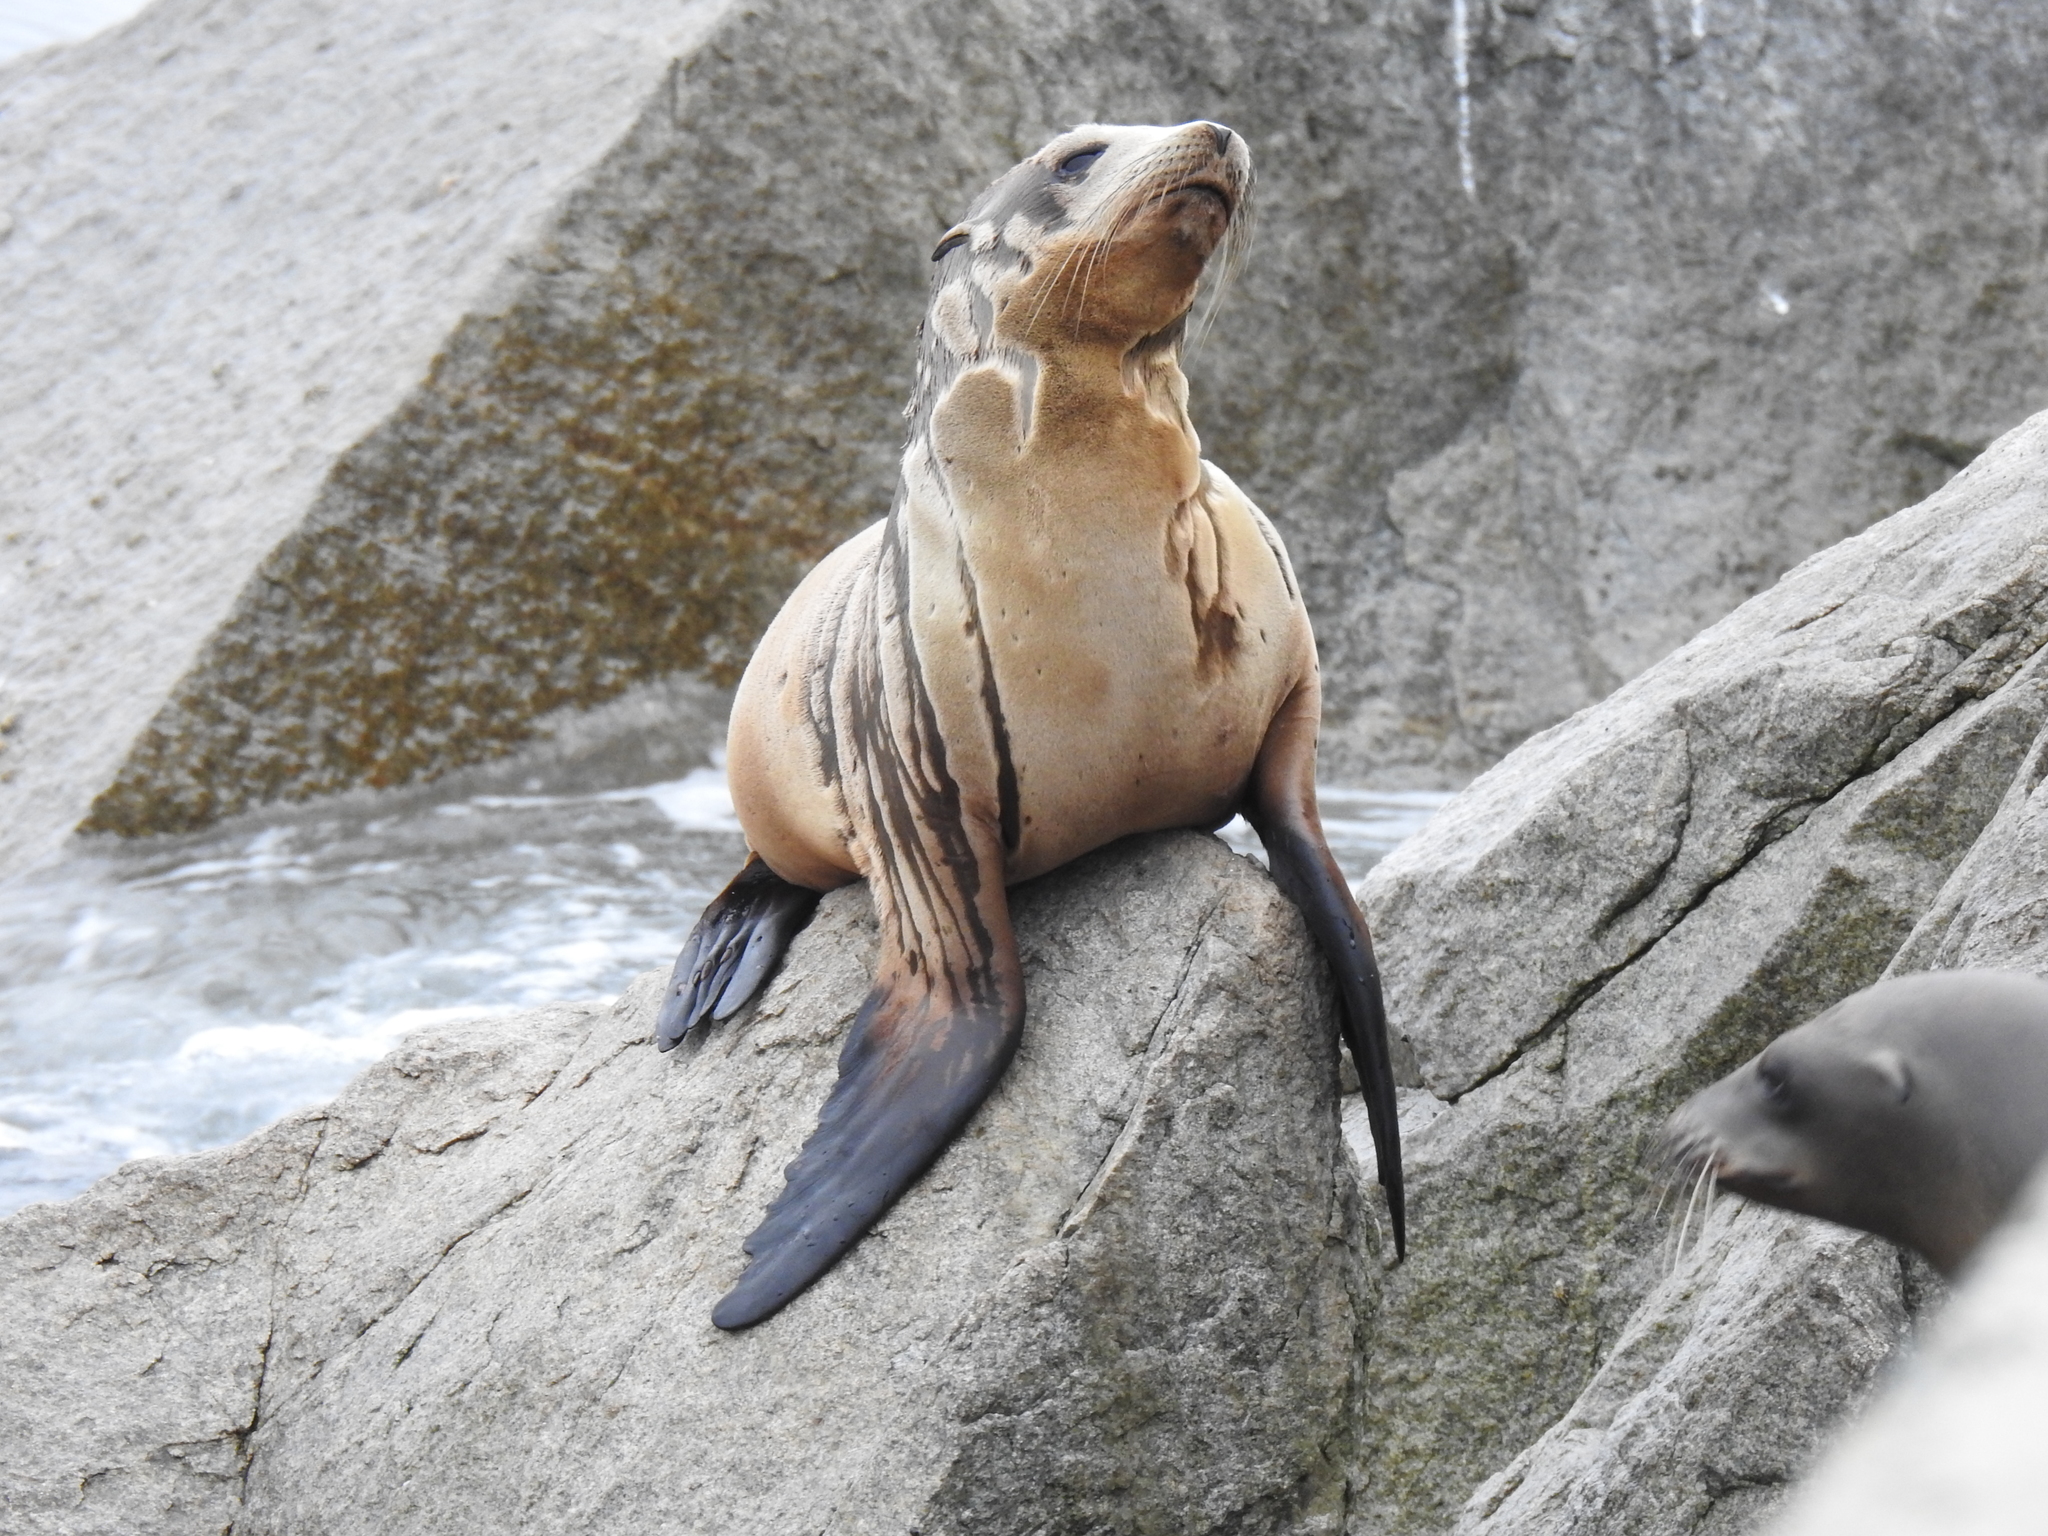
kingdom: Animalia
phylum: Chordata
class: Mammalia
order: Carnivora
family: Otariidae
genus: Zalophus
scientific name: Zalophus californianus
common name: California sea lion
